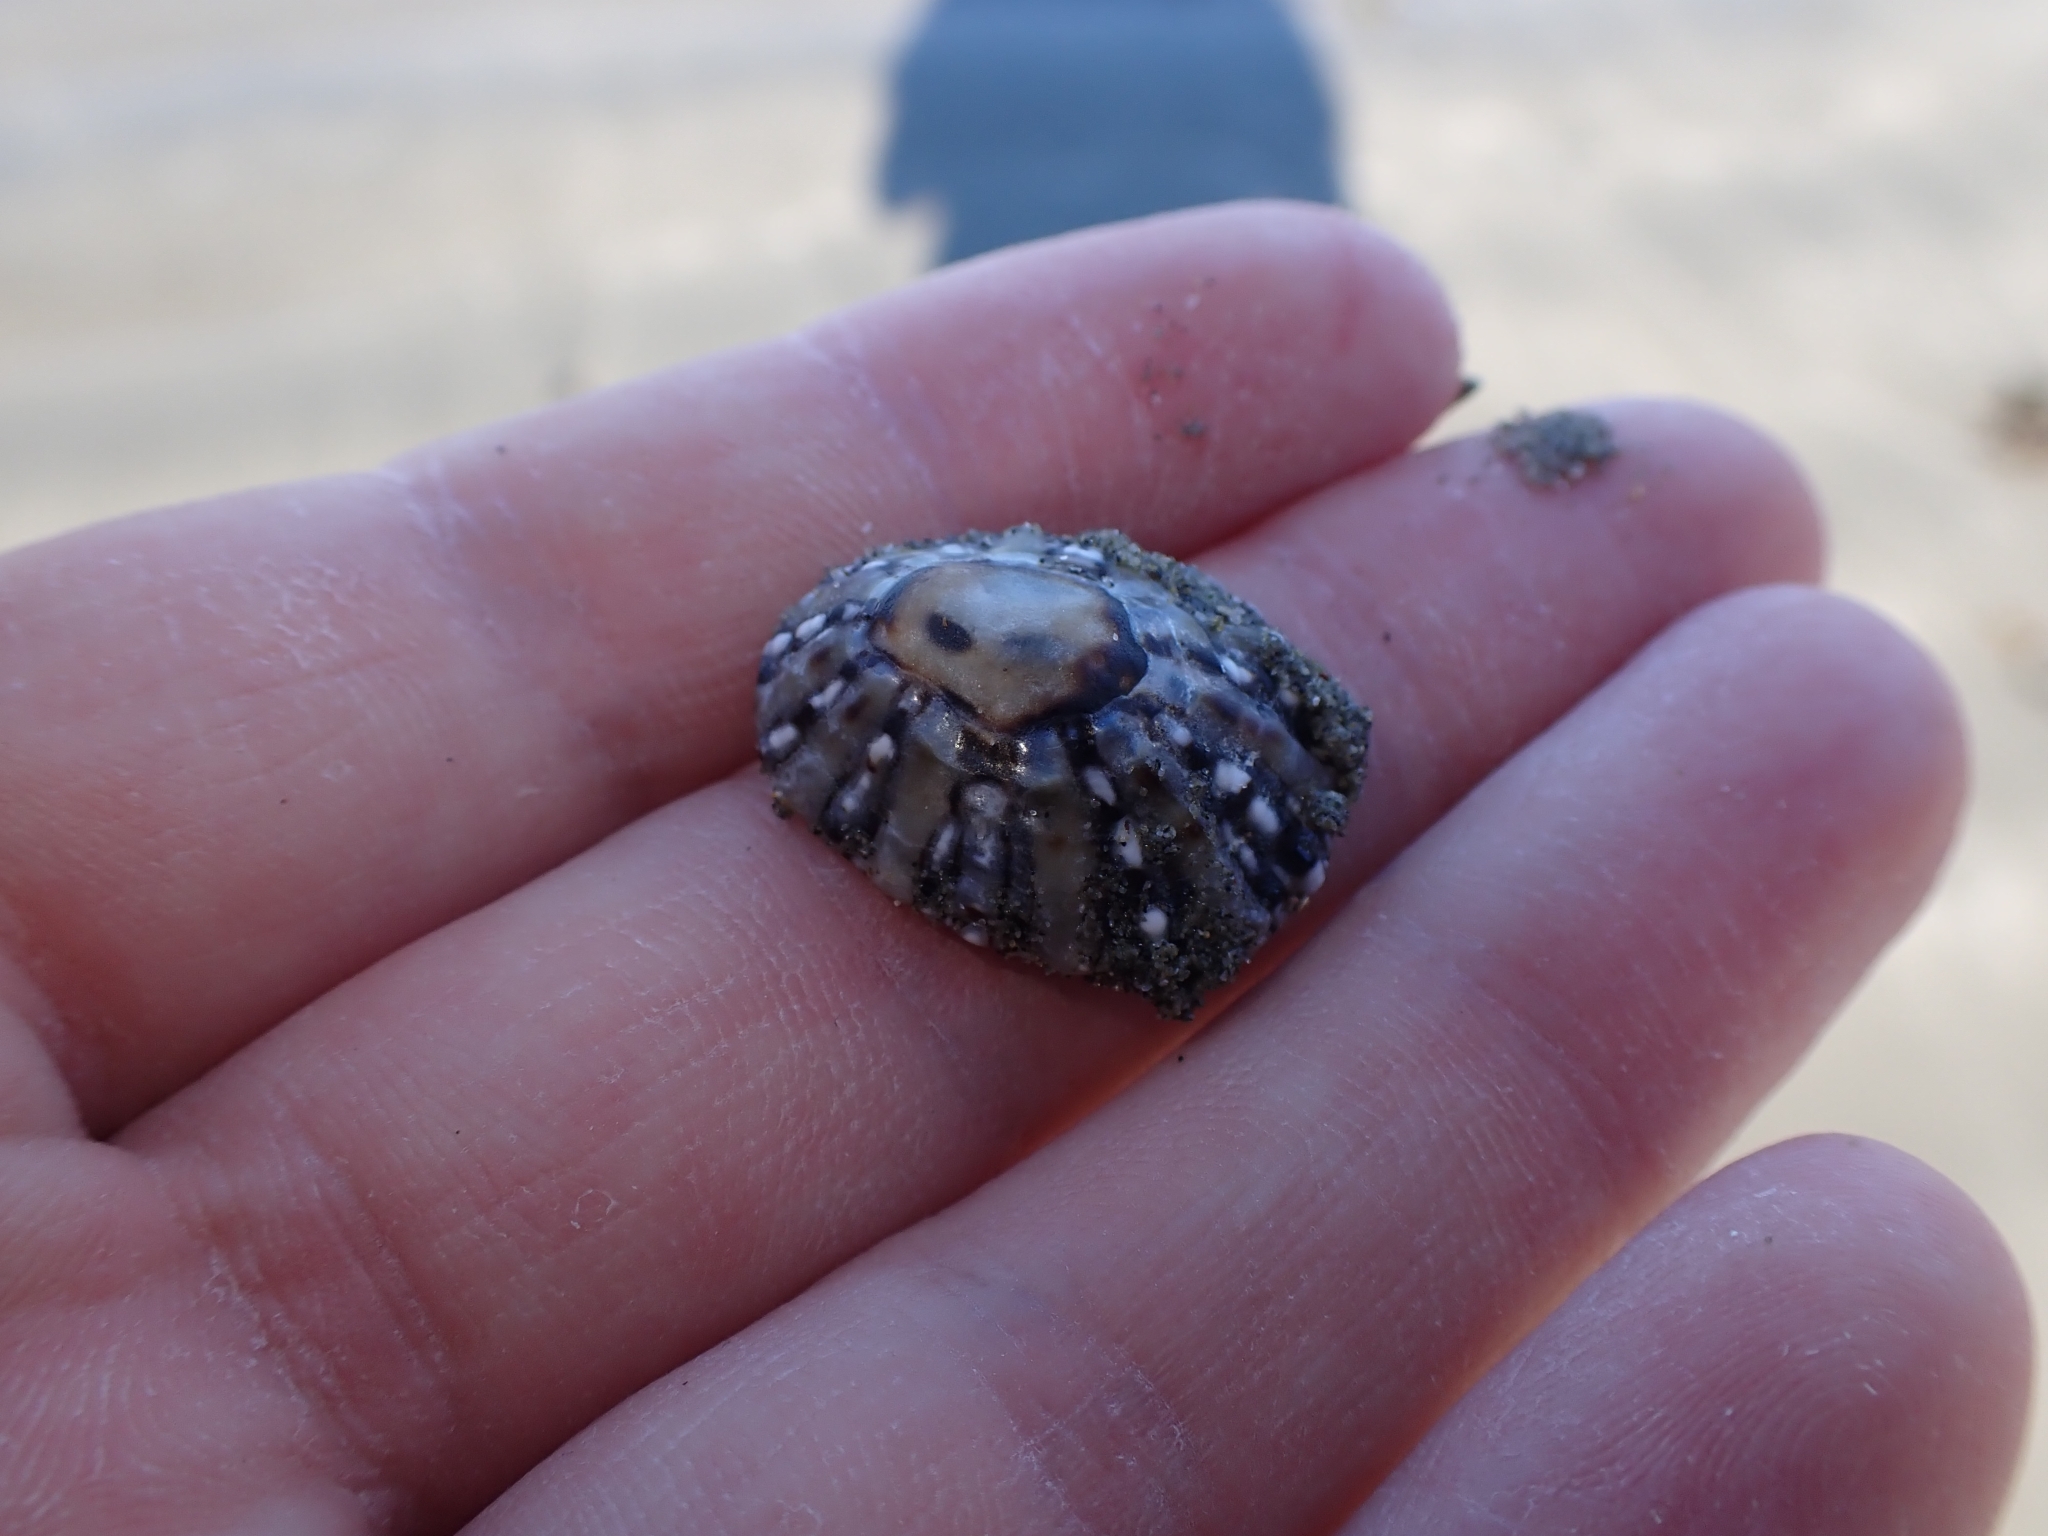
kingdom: Animalia
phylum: Mollusca
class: Gastropoda
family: Nacellidae
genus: Cellana
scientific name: Cellana ornata
